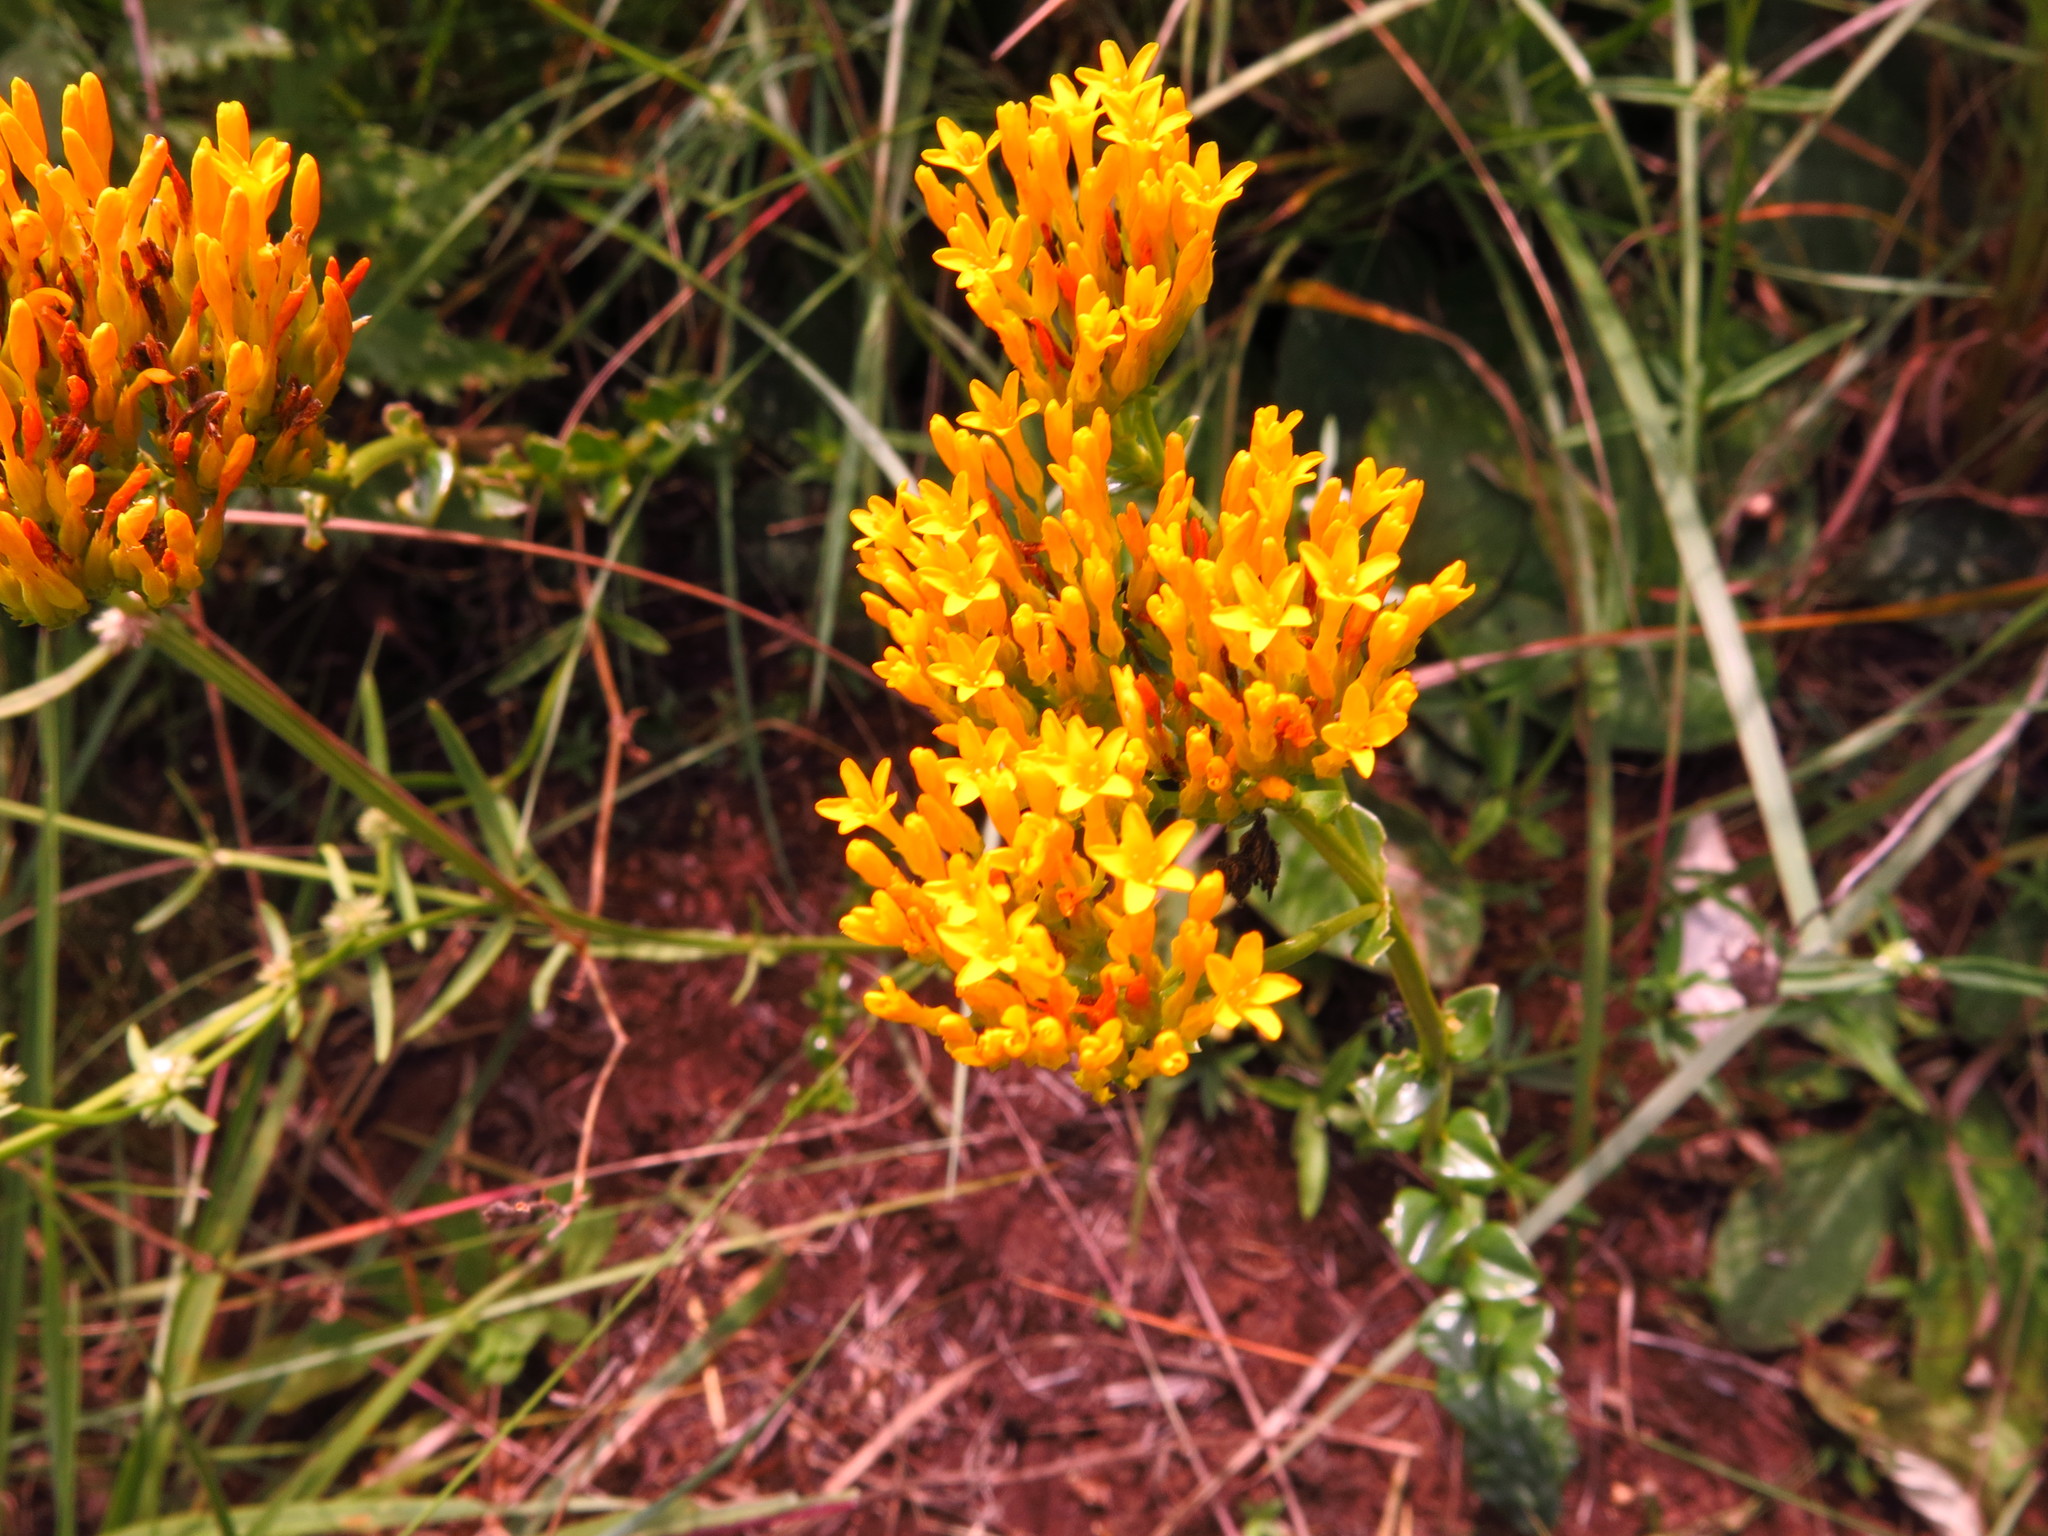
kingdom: Plantae
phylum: Tracheophyta
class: Magnoliopsida
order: Gentianales
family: Gentianaceae
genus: Sebaea
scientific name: Sebaea sedoides
